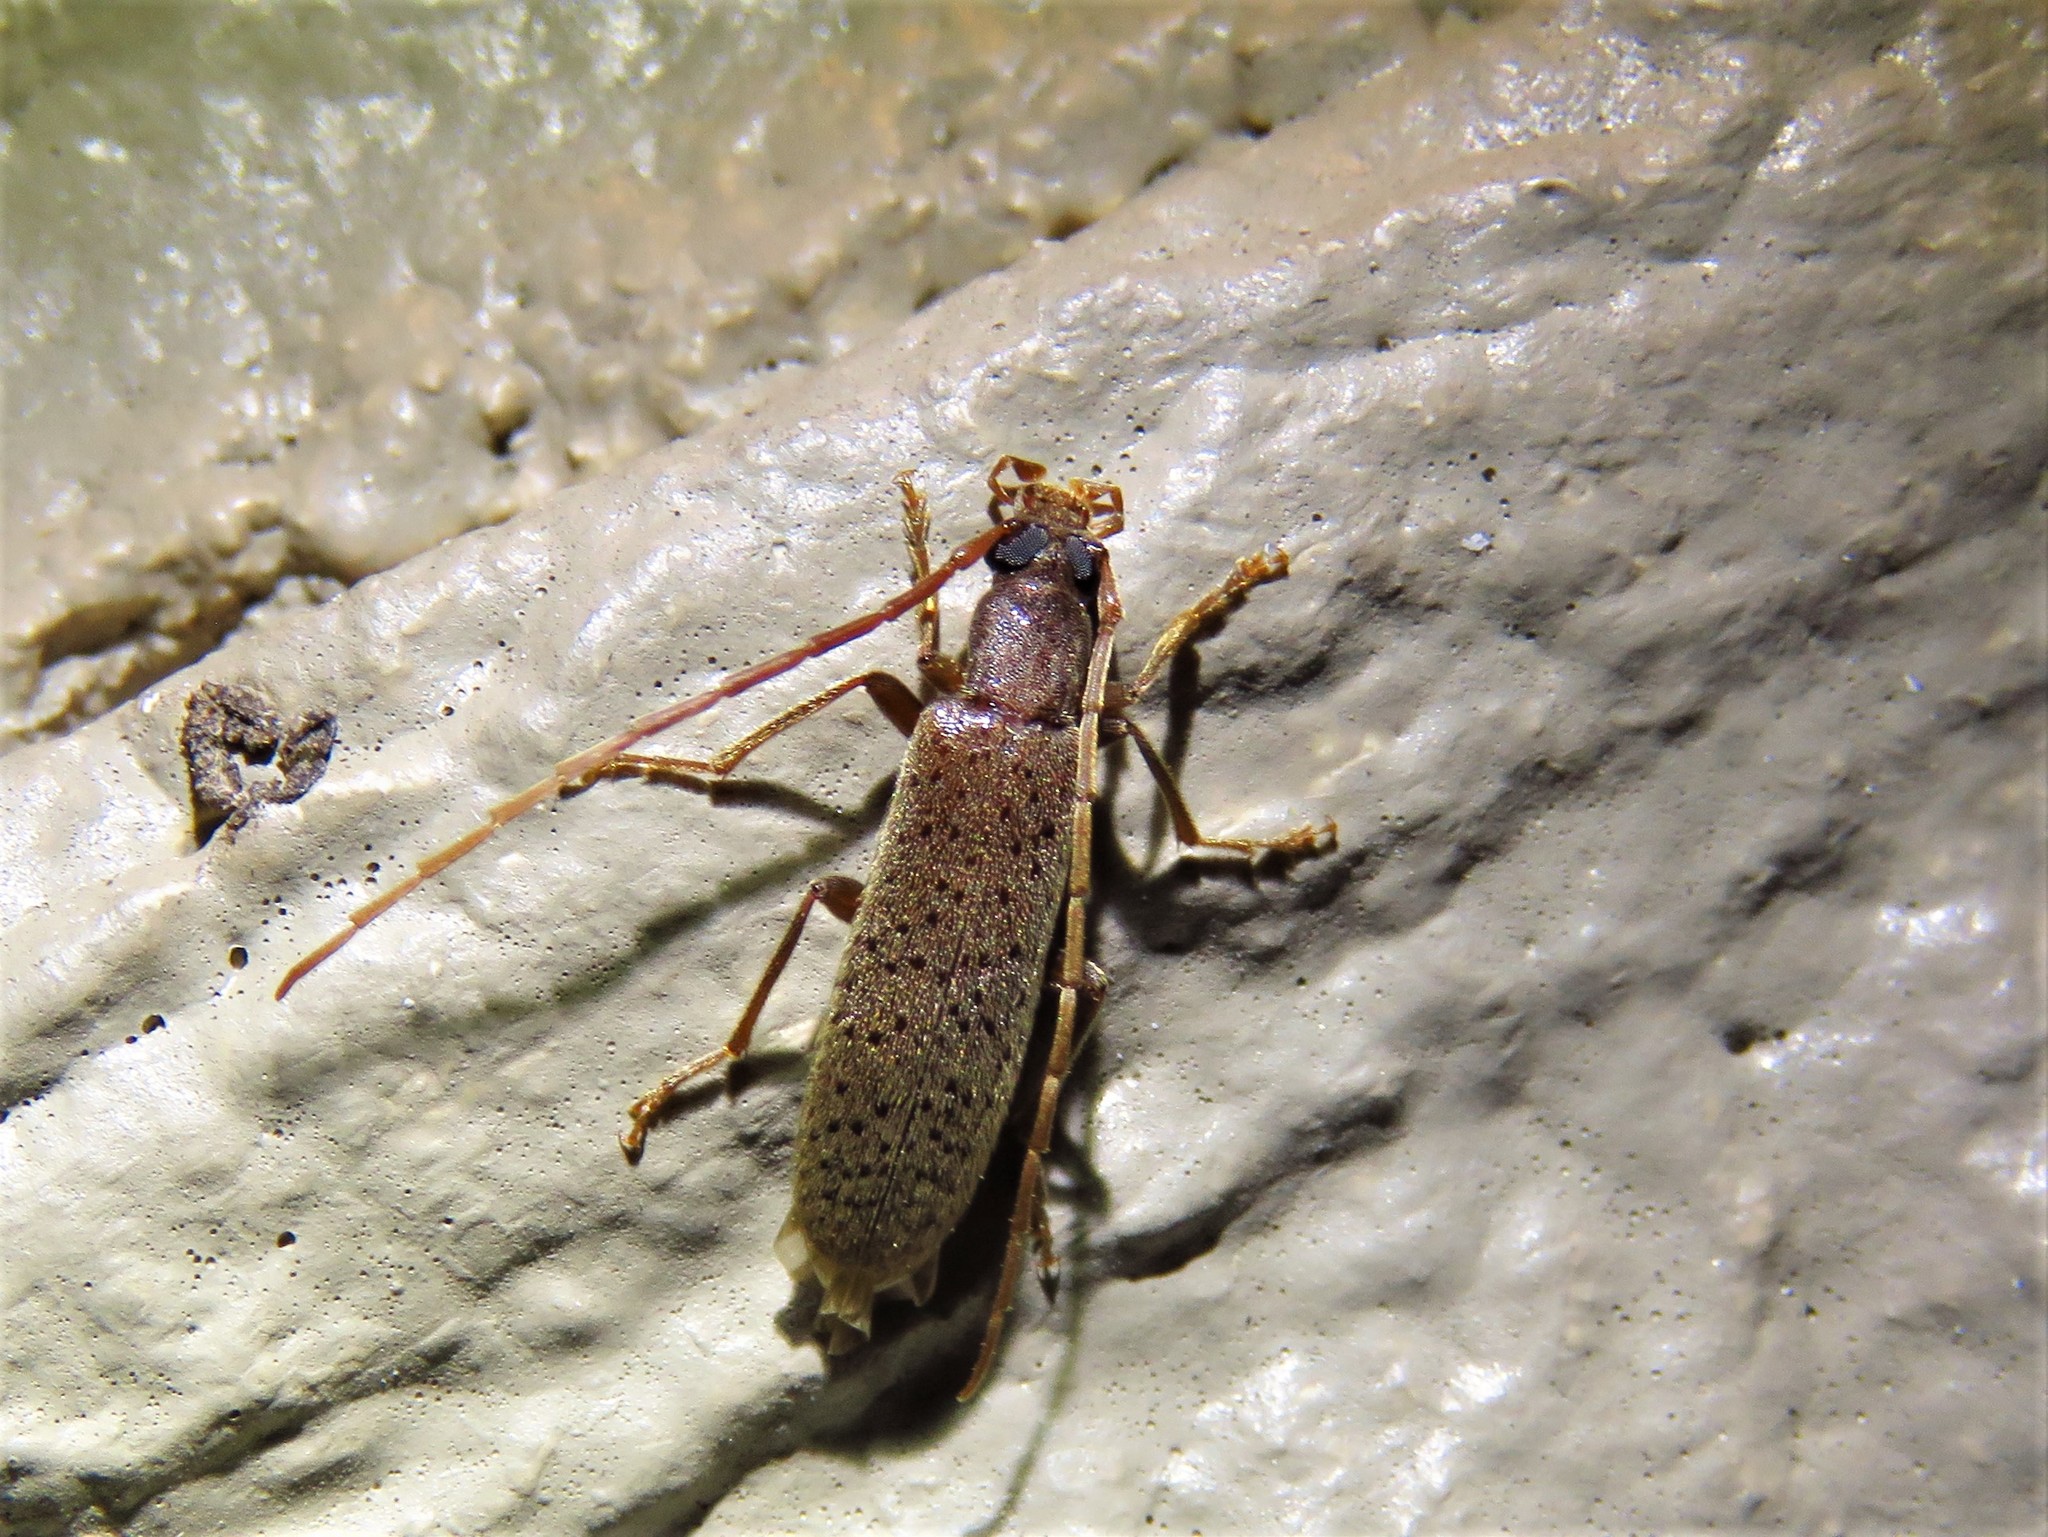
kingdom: Animalia
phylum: Arthropoda
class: Insecta
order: Coleoptera
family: Oedemeridae
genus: Sparedrus
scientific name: Sparedrus aspersus
